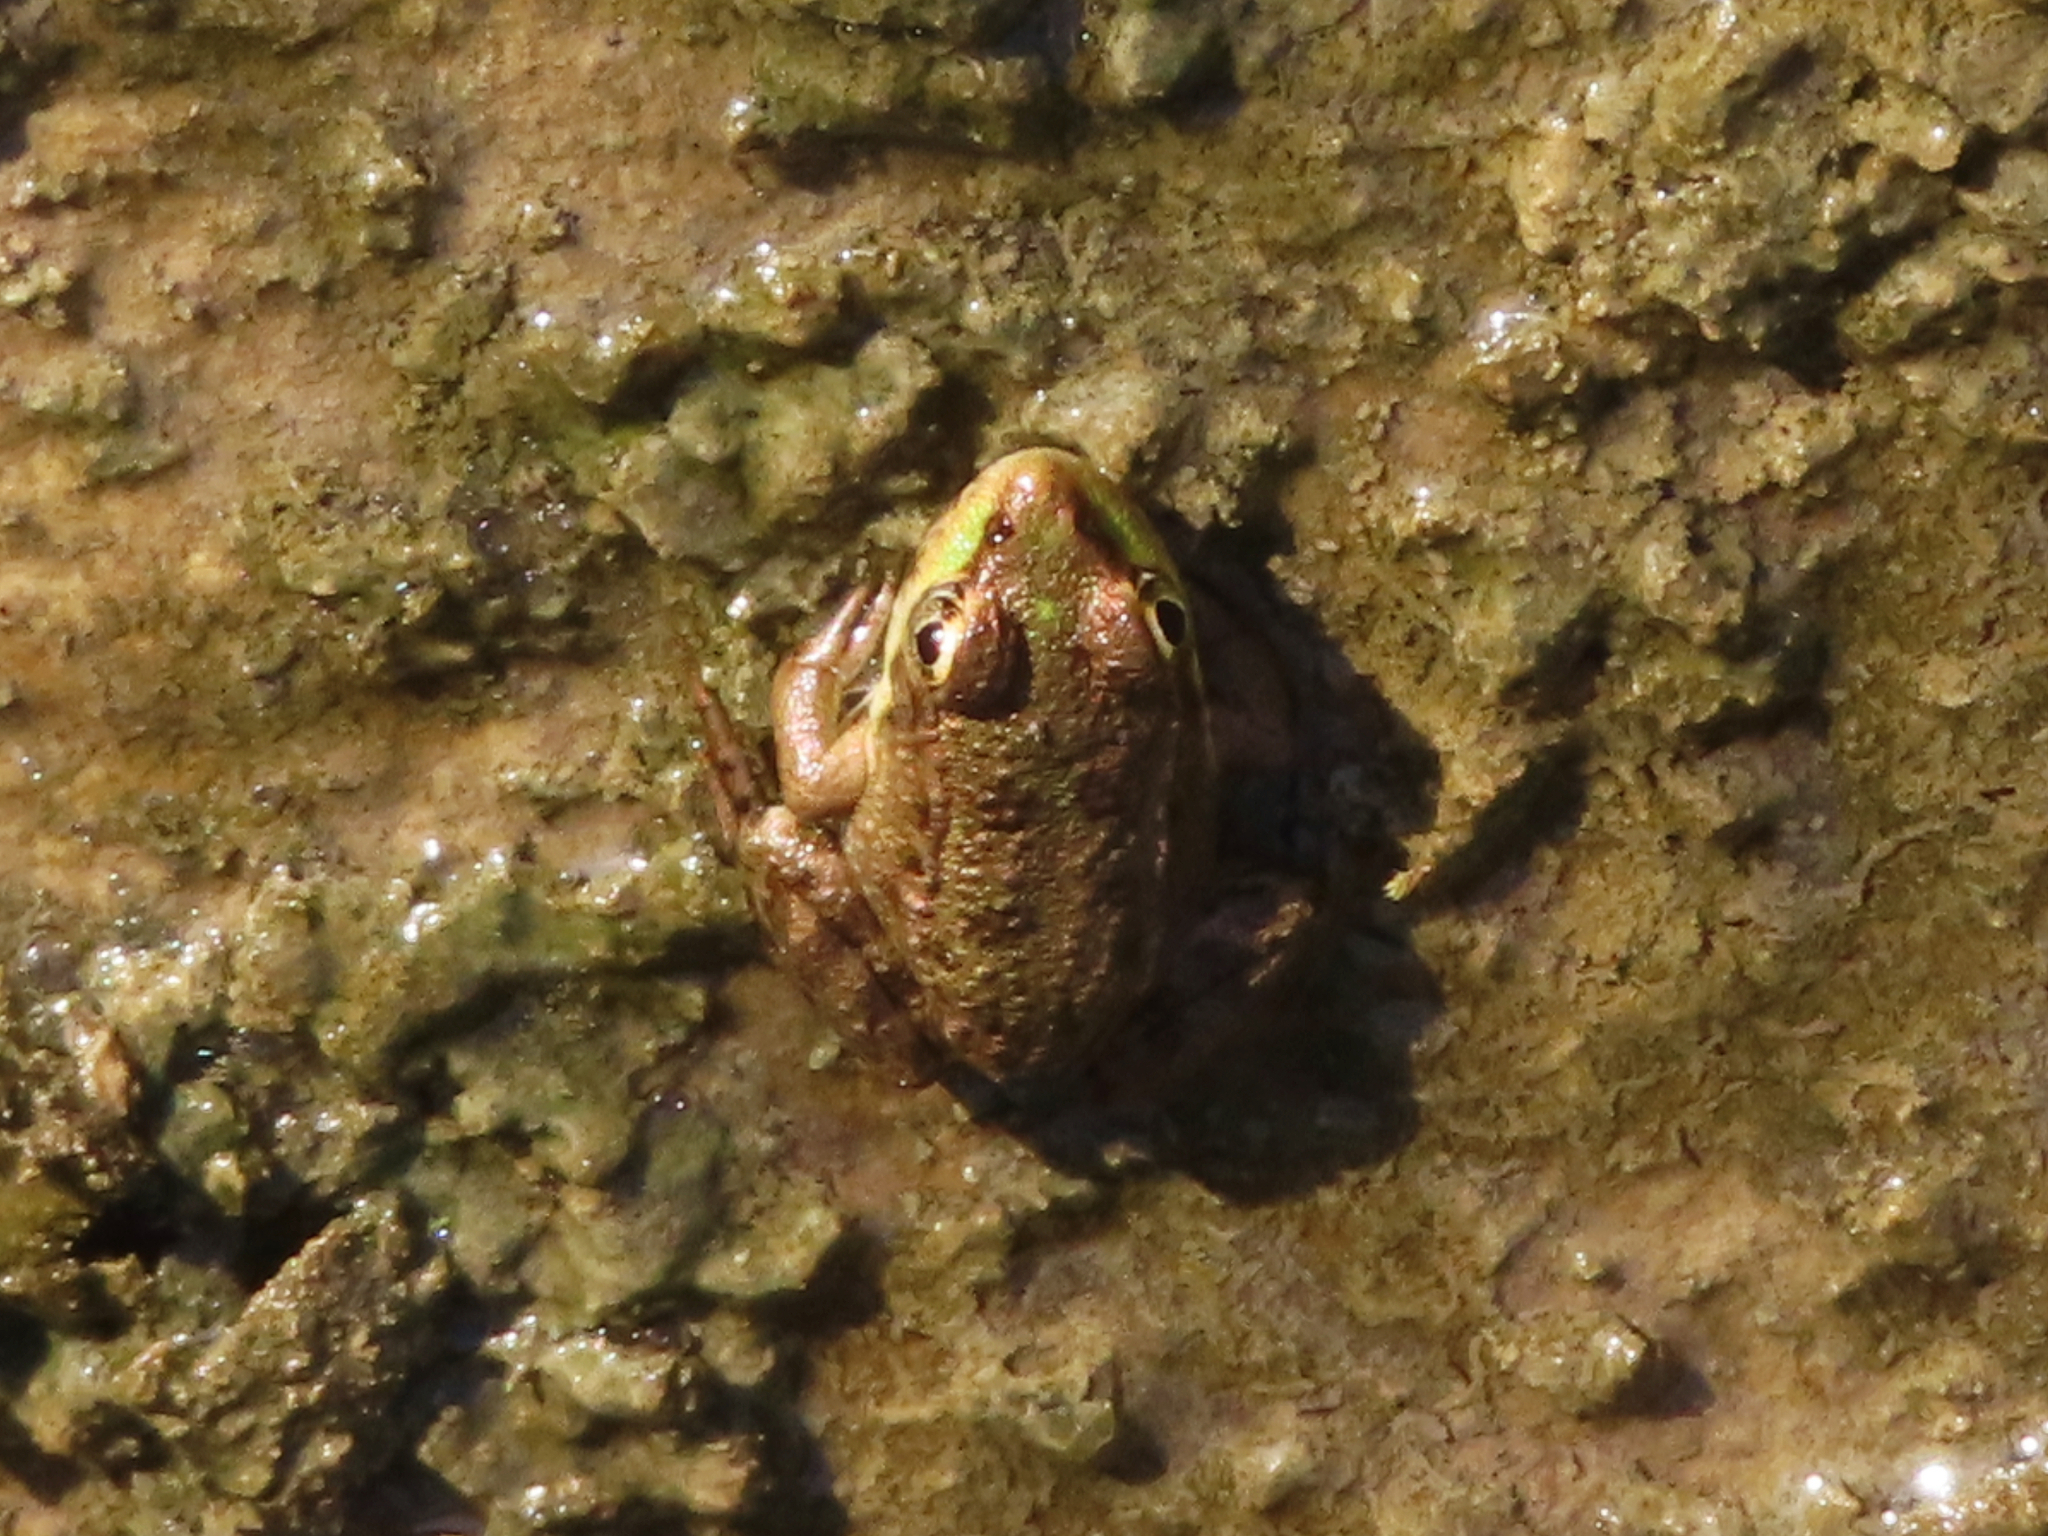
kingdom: Animalia
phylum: Chordata
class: Amphibia
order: Anura
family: Ranidae
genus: Pelophylax
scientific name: Pelophylax ridibundus
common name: Marsh frog
